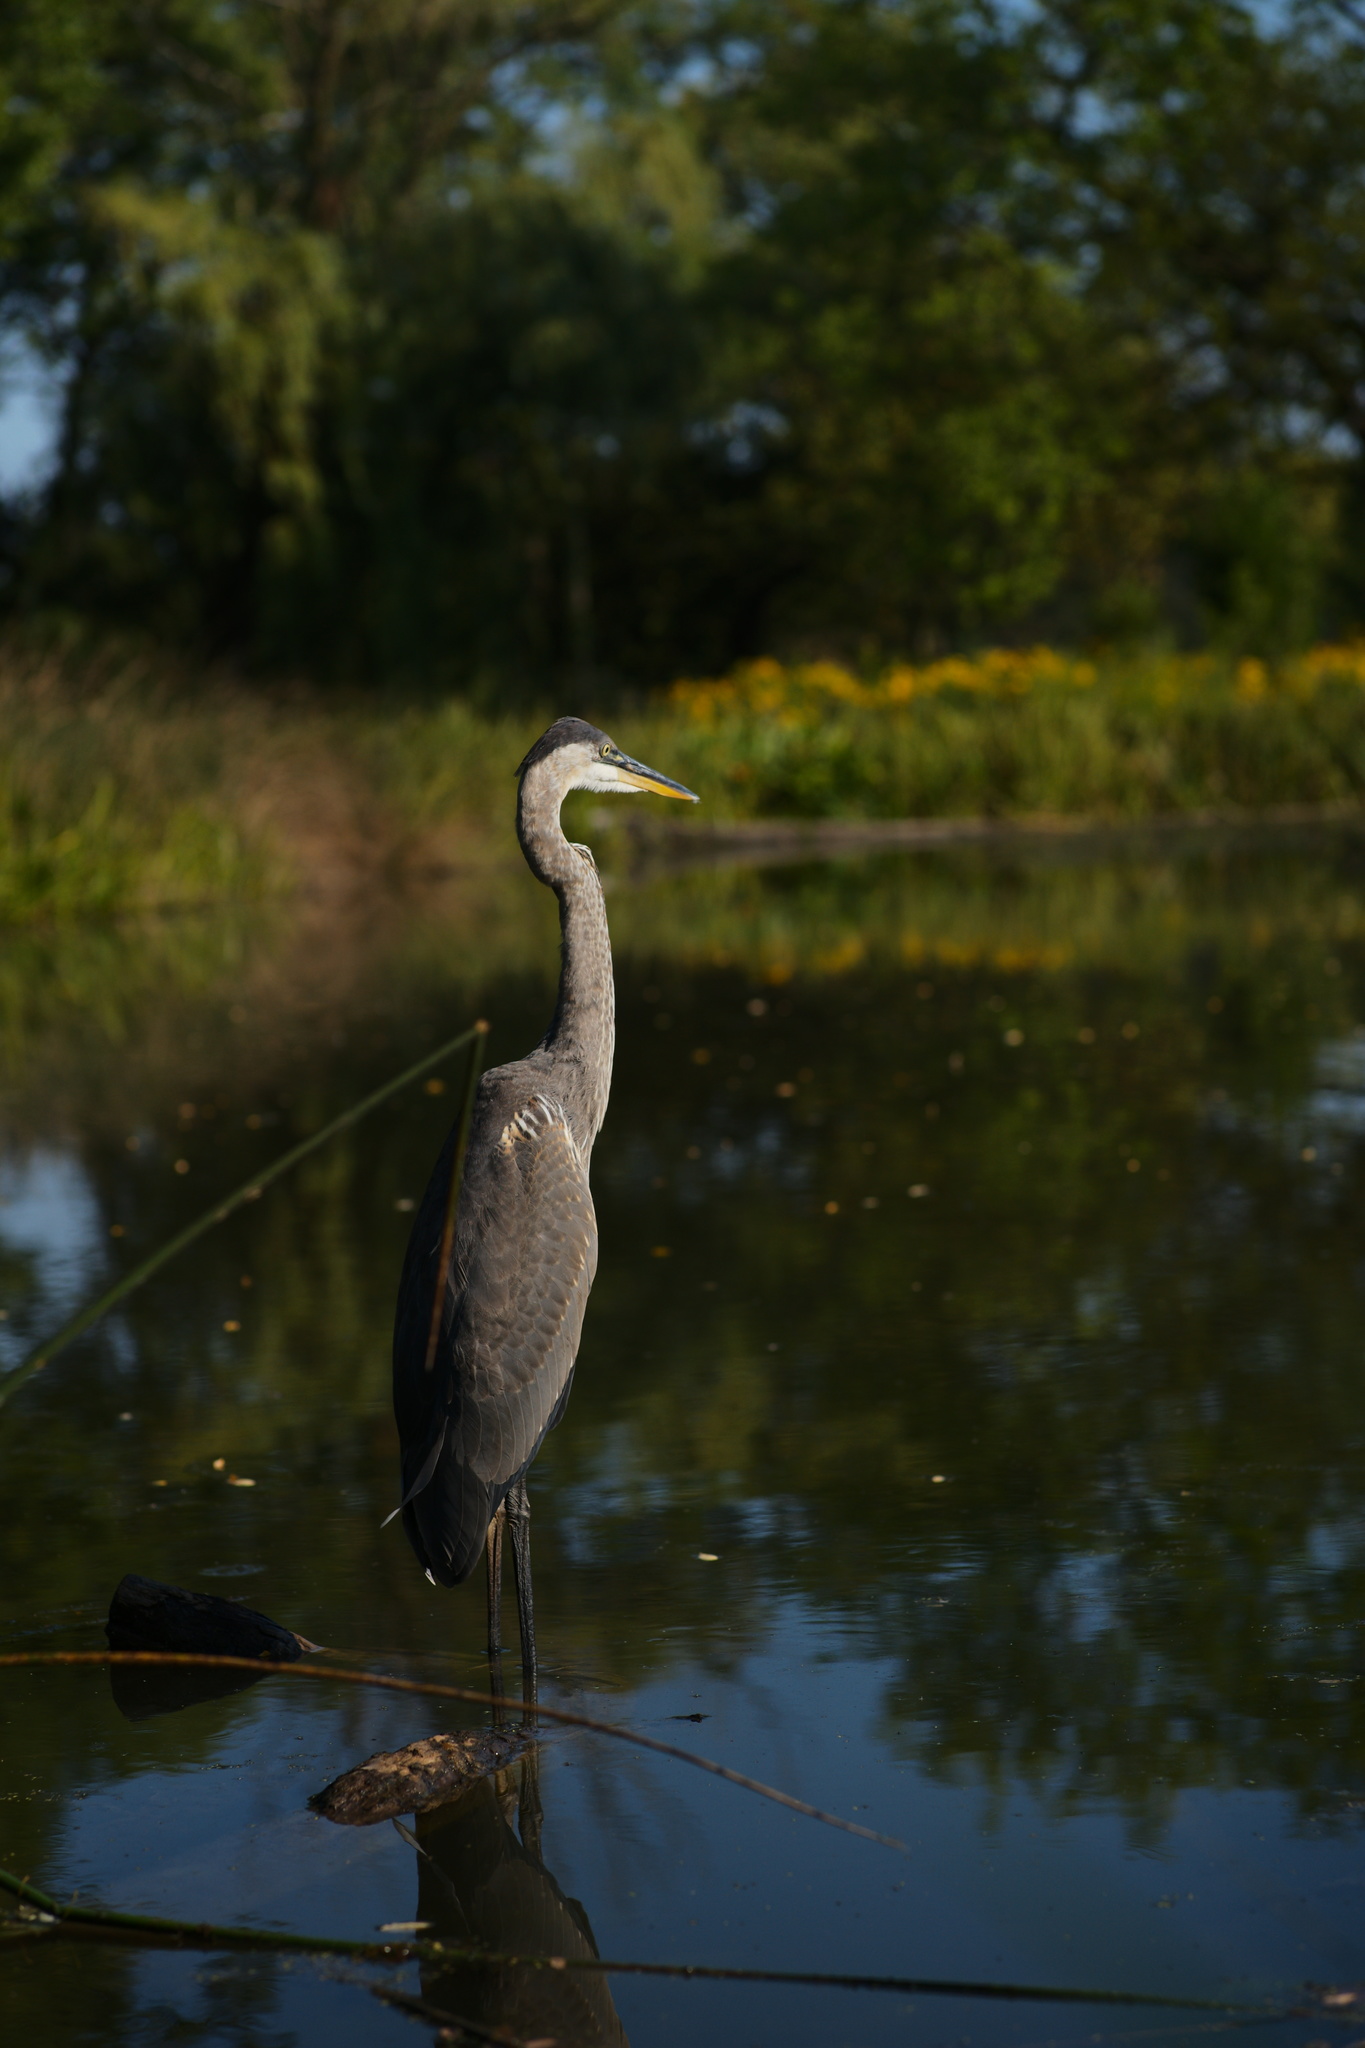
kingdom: Animalia
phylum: Chordata
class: Aves
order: Pelecaniformes
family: Ardeidae
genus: Ardea
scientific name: Ardea herodias
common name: Great blue heron
